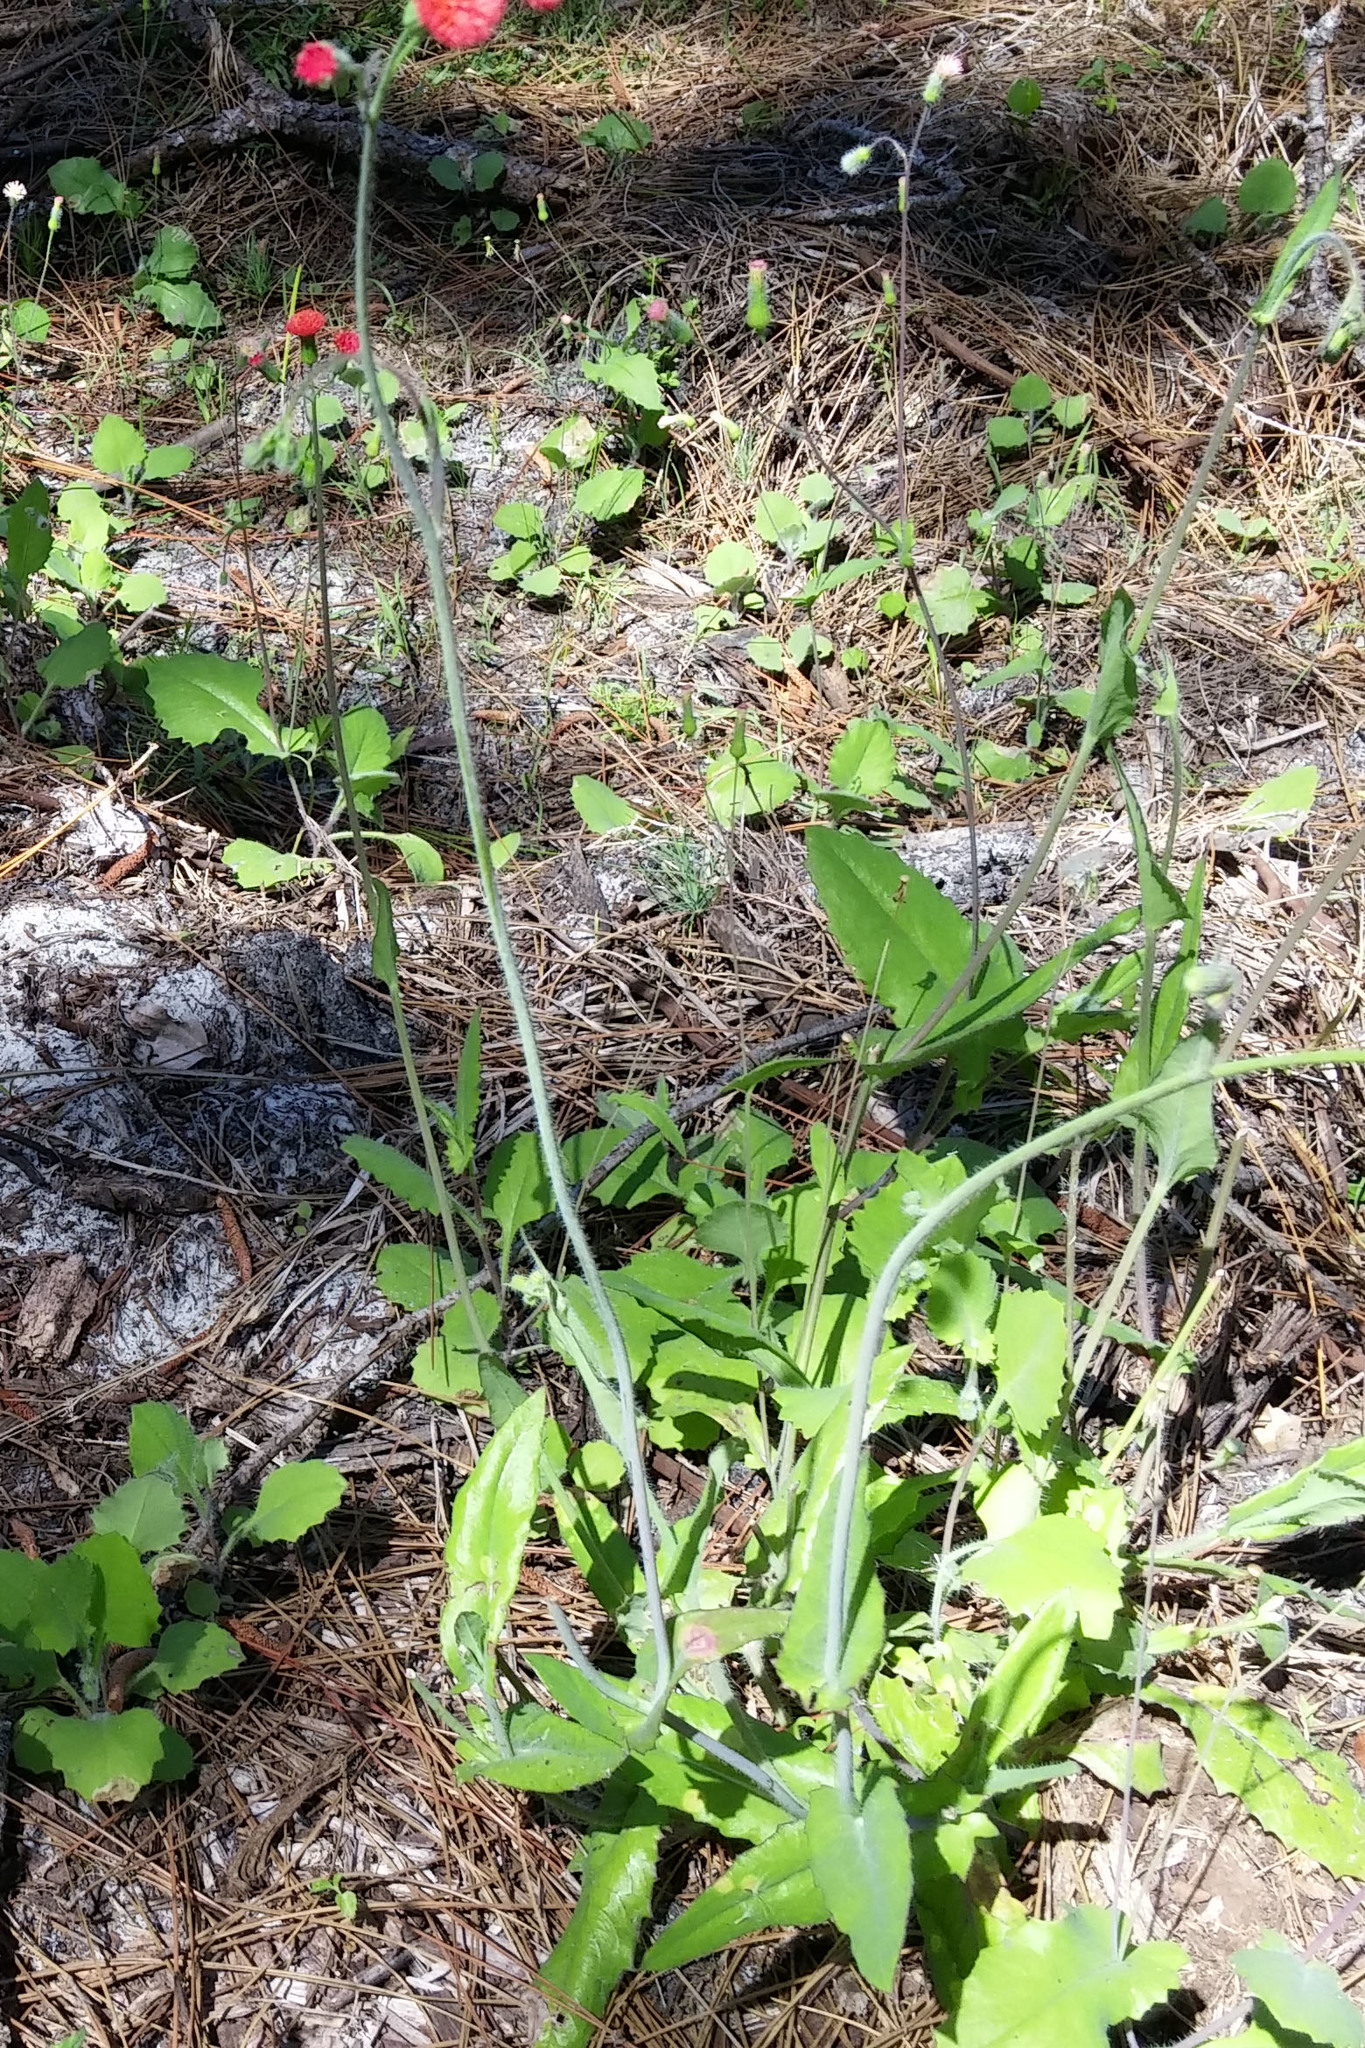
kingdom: Plantae
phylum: Tracheophyta
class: Magnoliopsida
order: Asterales
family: Asteraceae
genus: Emilia
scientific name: Emilia fosbergii
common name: Florida tasselflower
